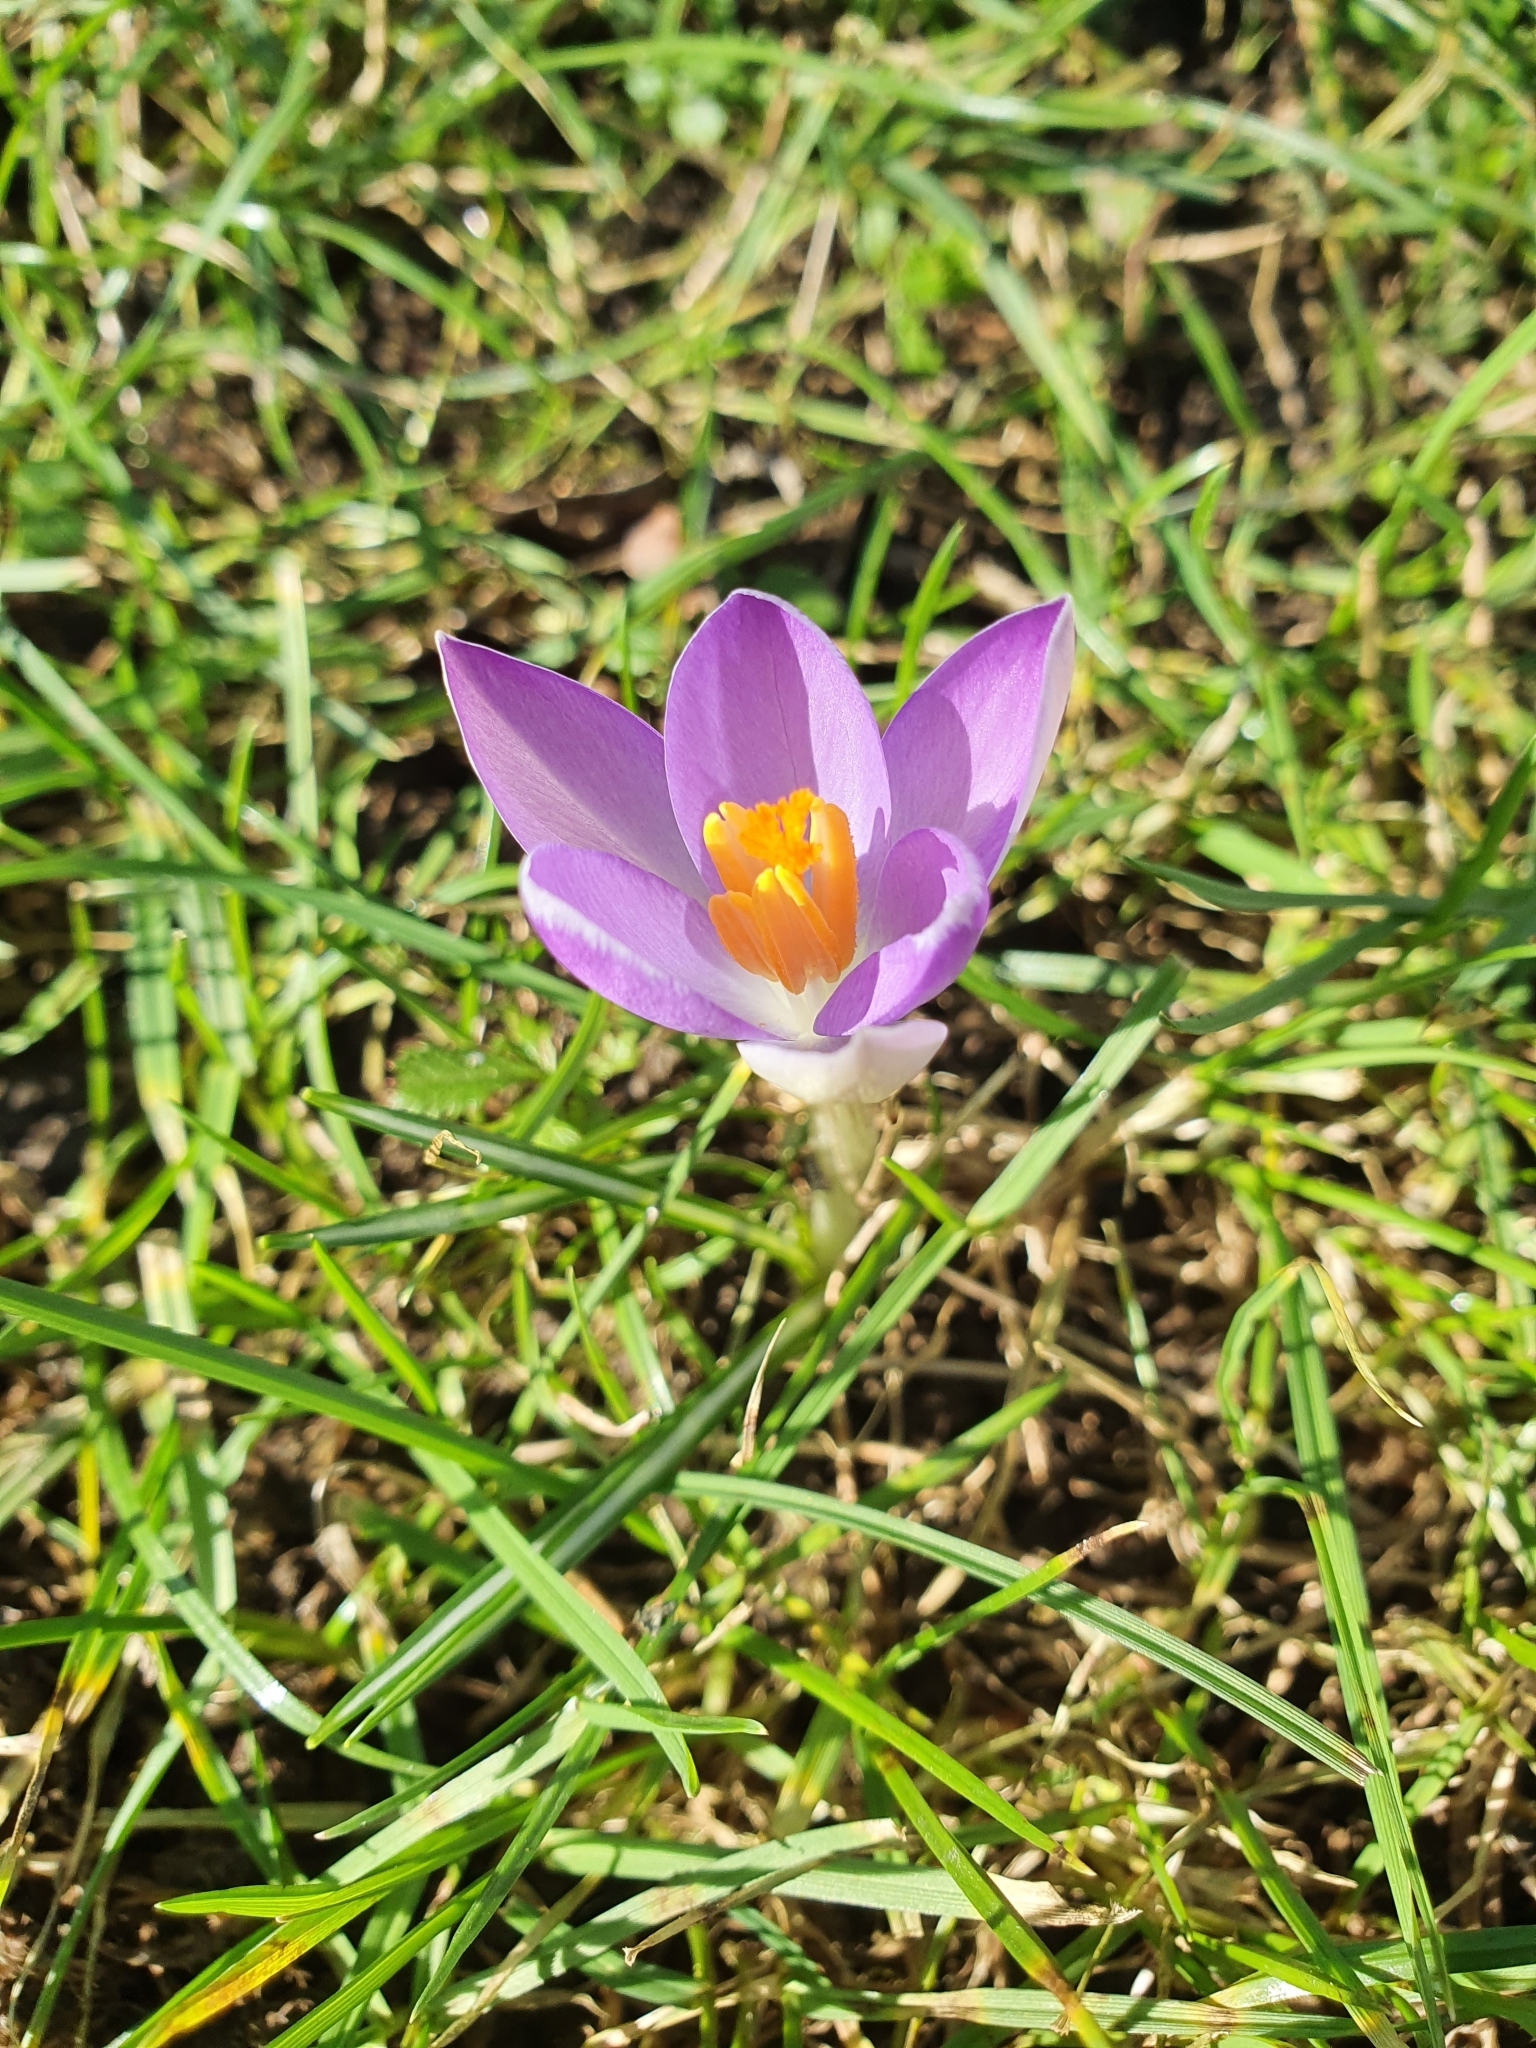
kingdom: Plantae
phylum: Tracheophyta
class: Liliopsida
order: Asparagales
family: Iridaceae
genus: Crocus
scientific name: Crocus tommasinianus
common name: Early crocus
